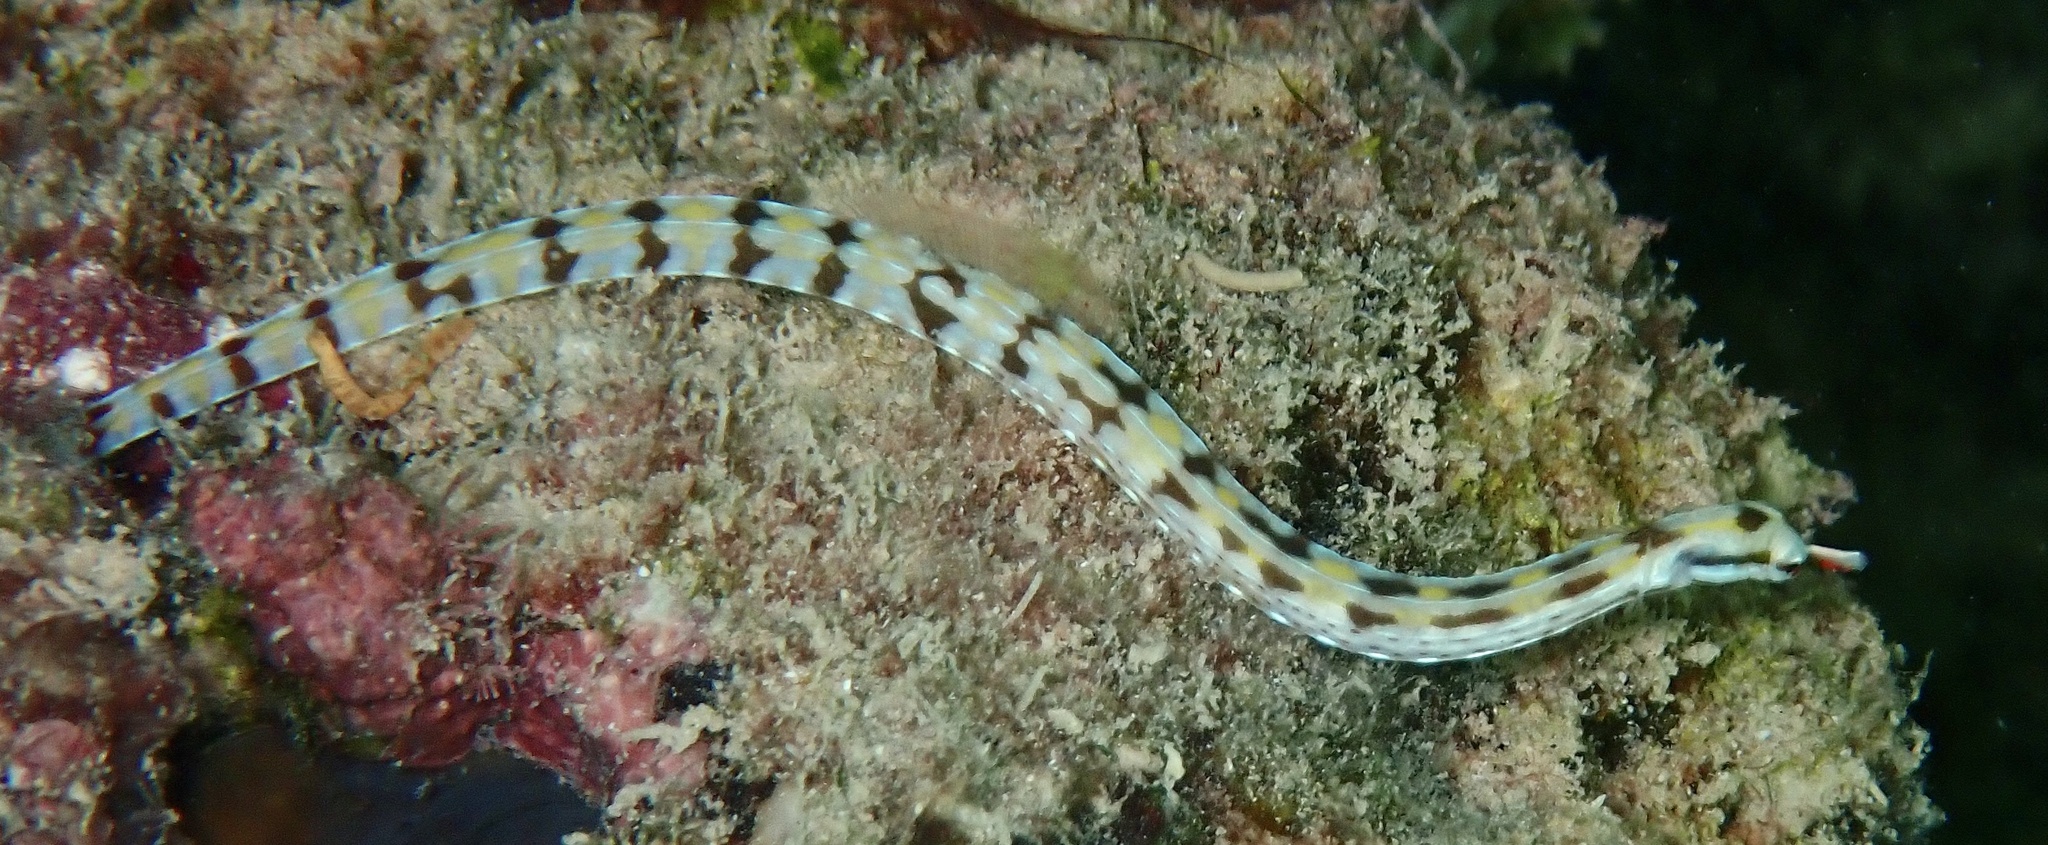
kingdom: Animalia
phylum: Chordata
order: Syngnathiformes
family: Syngnathidae
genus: Corythoichthys
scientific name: Corythoichthys flavofasciatus
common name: Banded pipefish
